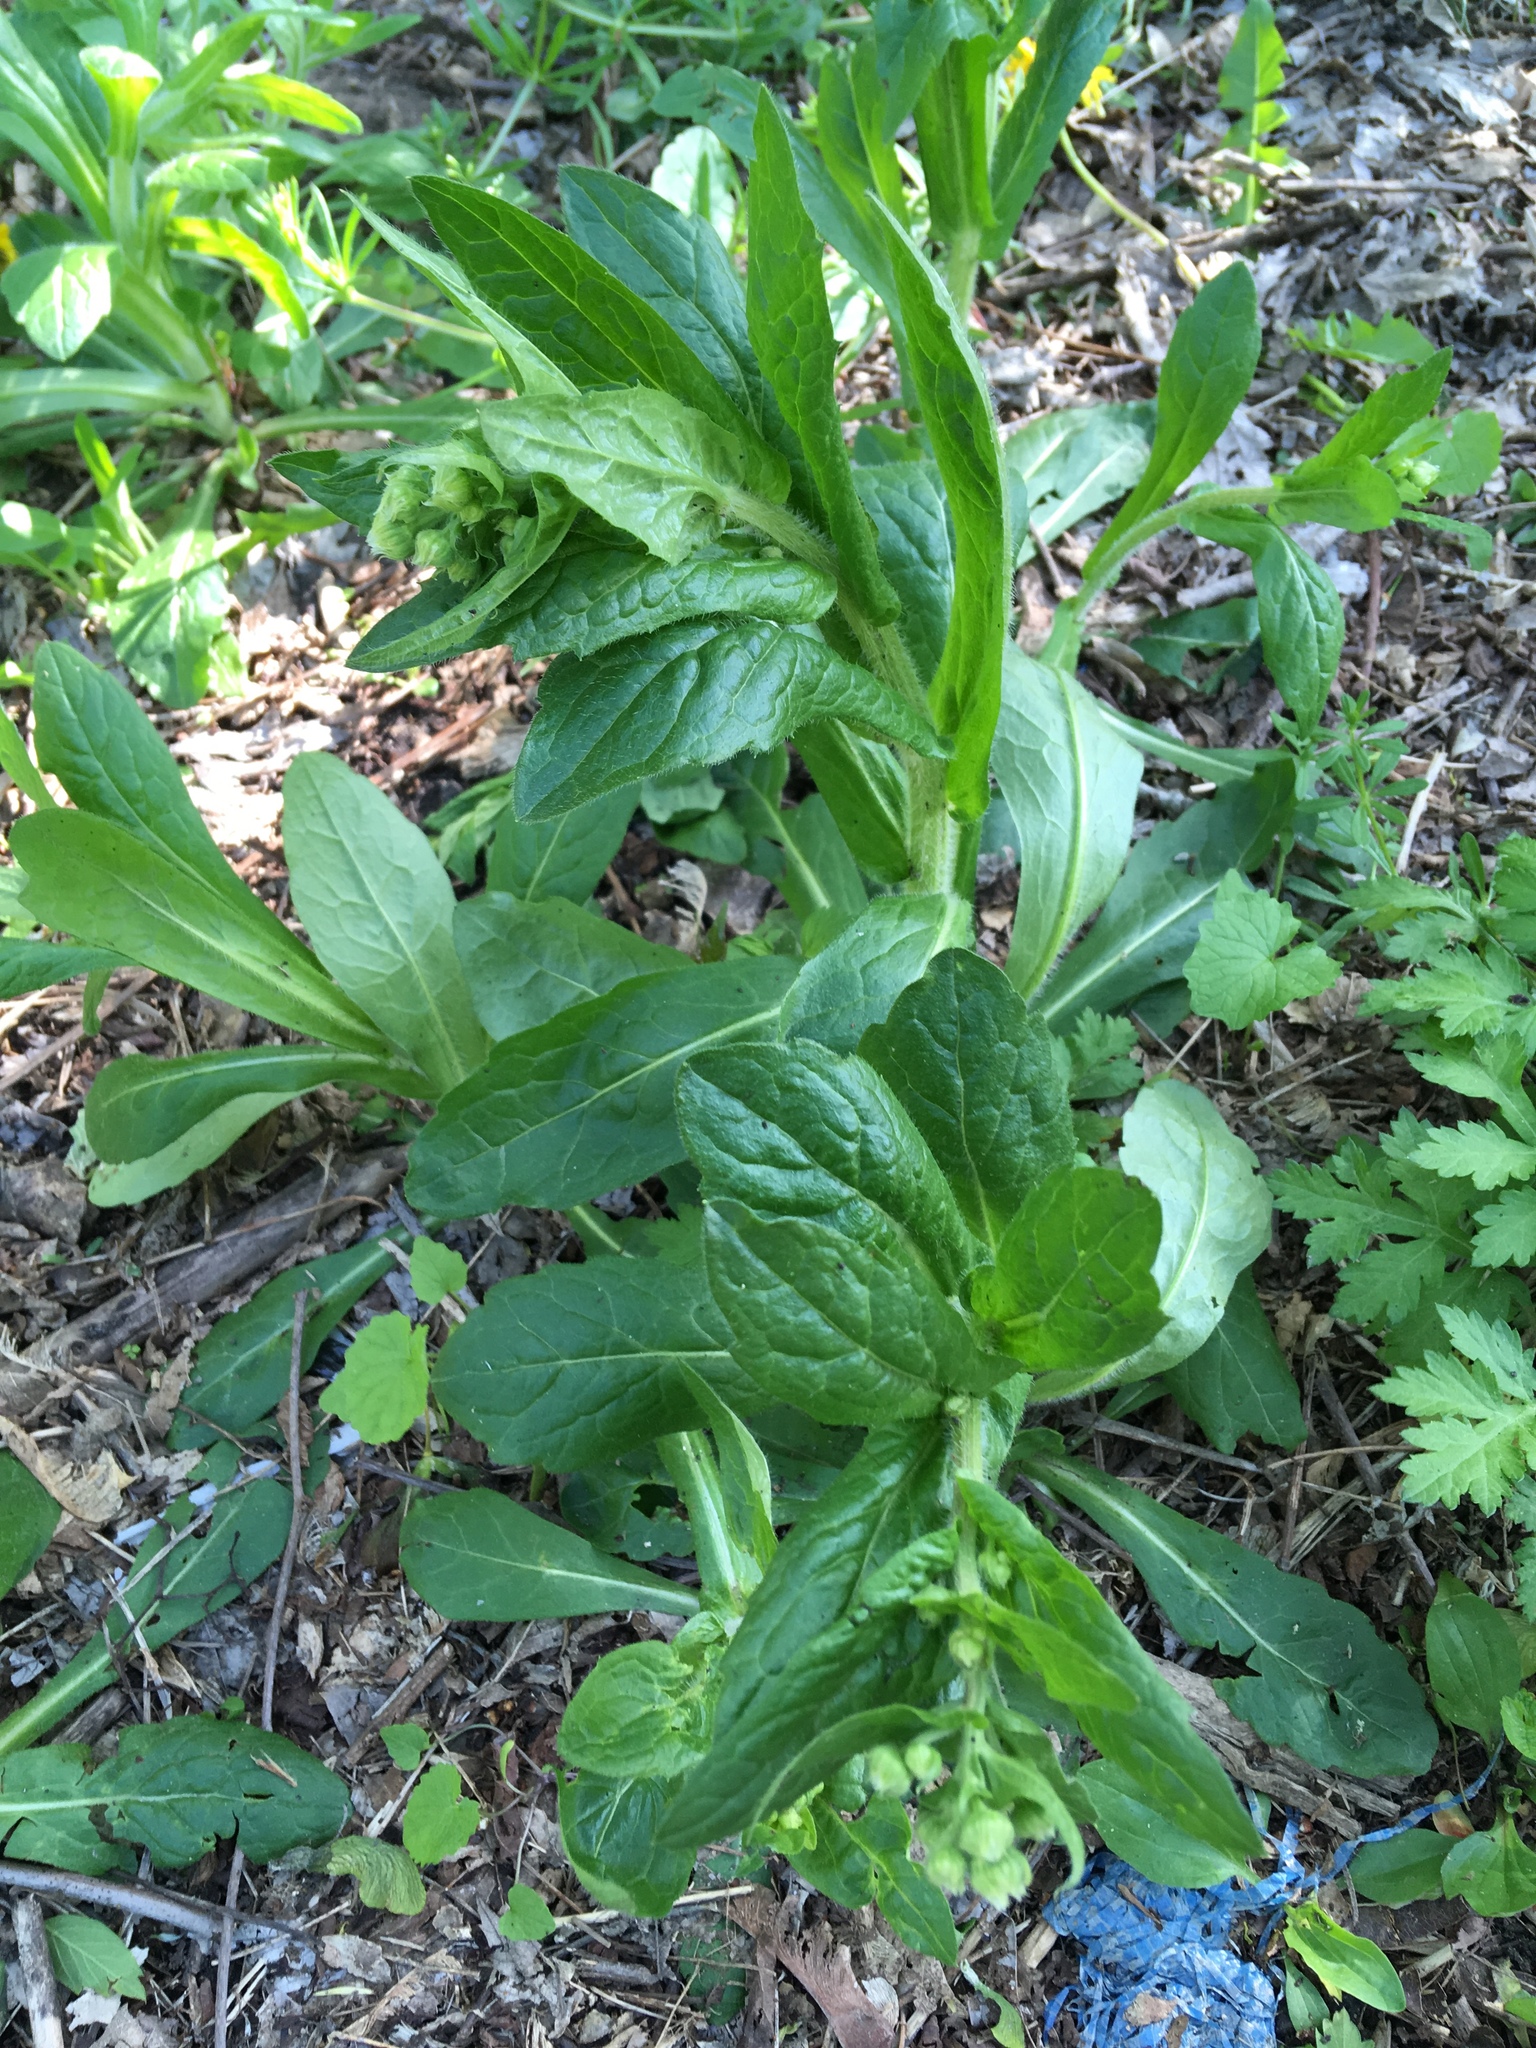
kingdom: Plantae
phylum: Tracheophyta
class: Magnoliopsida
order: Asterales
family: Asteraceae
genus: Erigeron
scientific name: Erigeron philadelphicus
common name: Robin's-plantain
